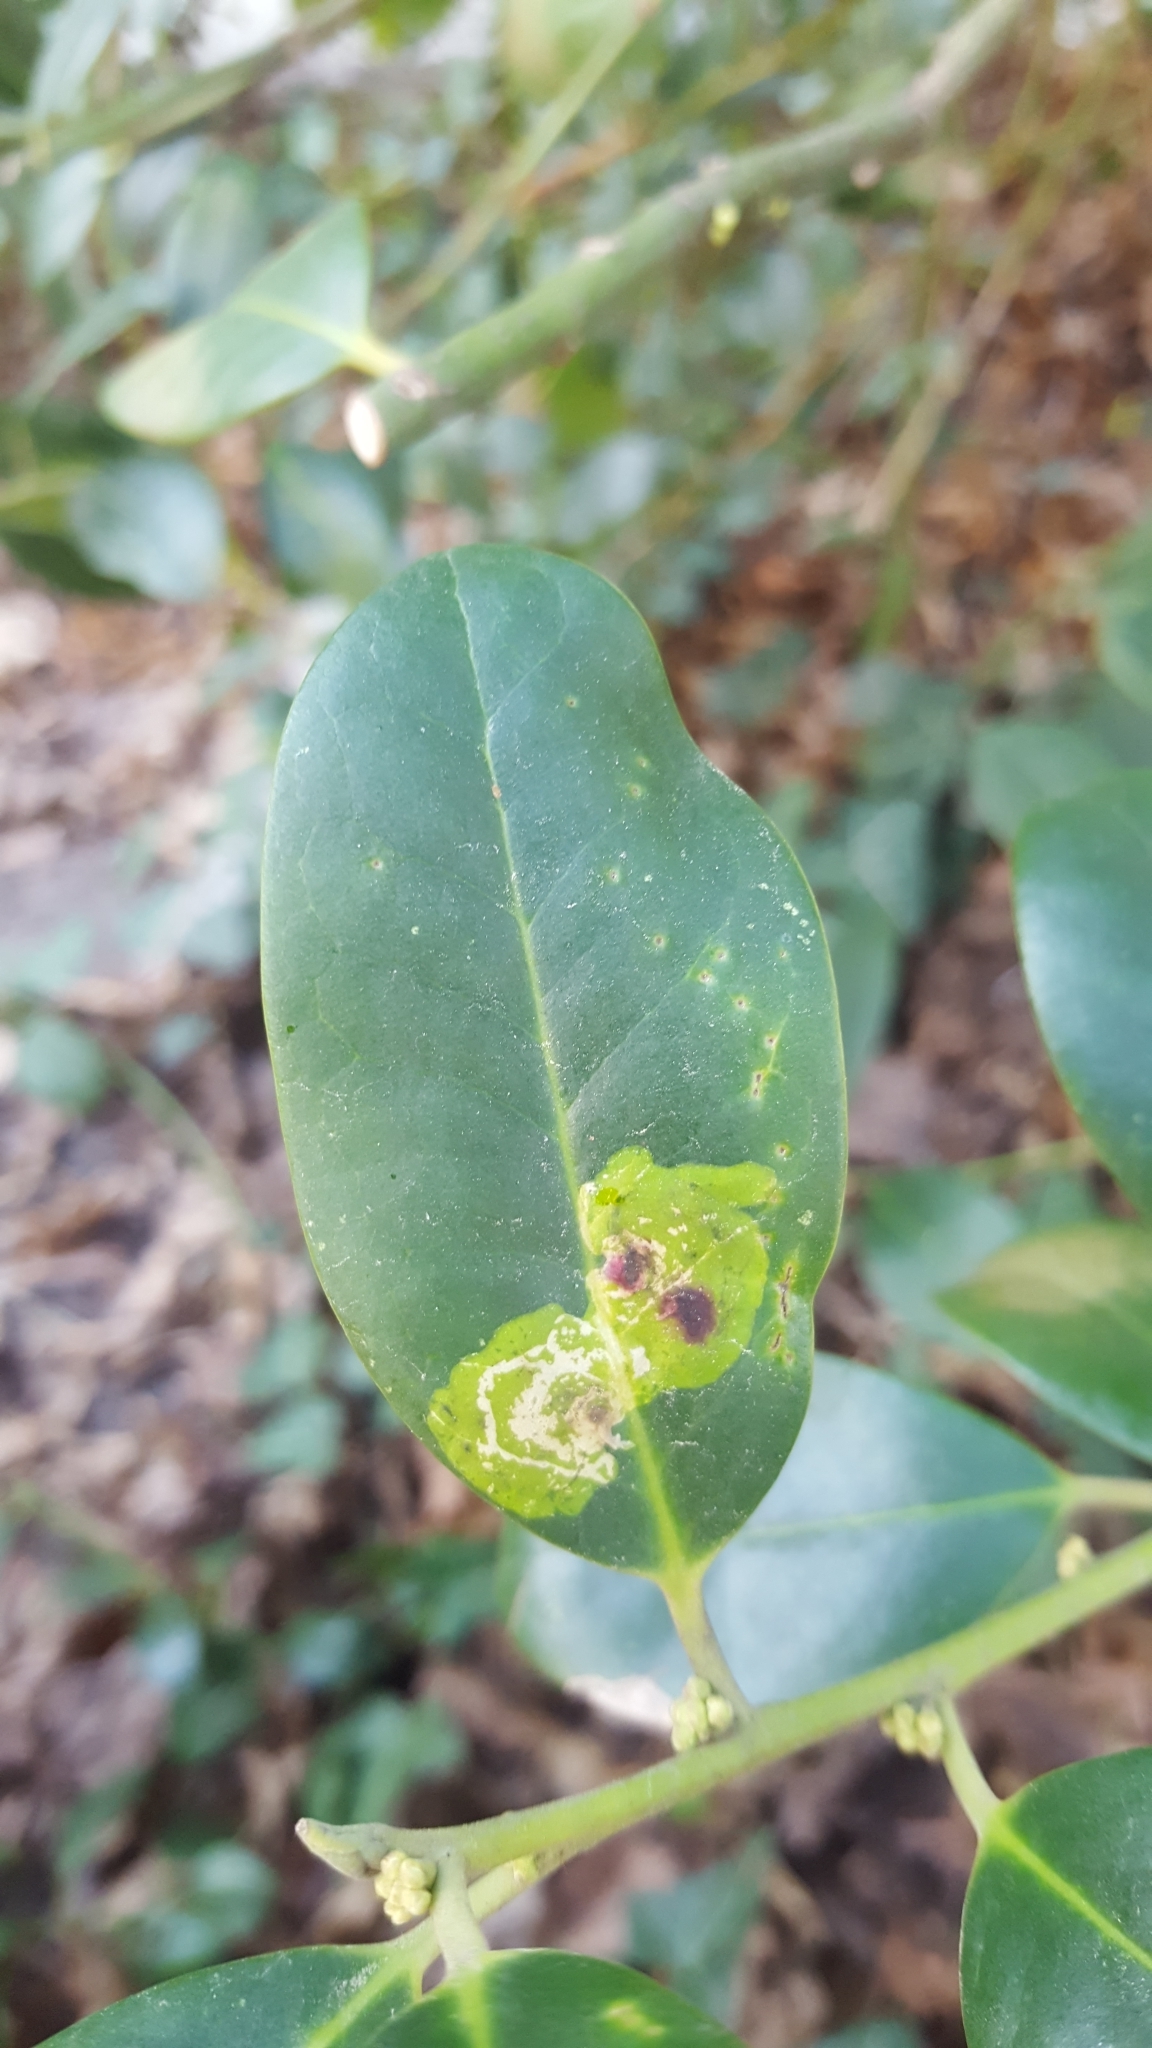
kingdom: Animalia
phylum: Arthropoda
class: Insecta
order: Diptera
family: Agromyzidae
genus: Phytomyza
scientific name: Phytomyza ilicis
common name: Holly leafminer
